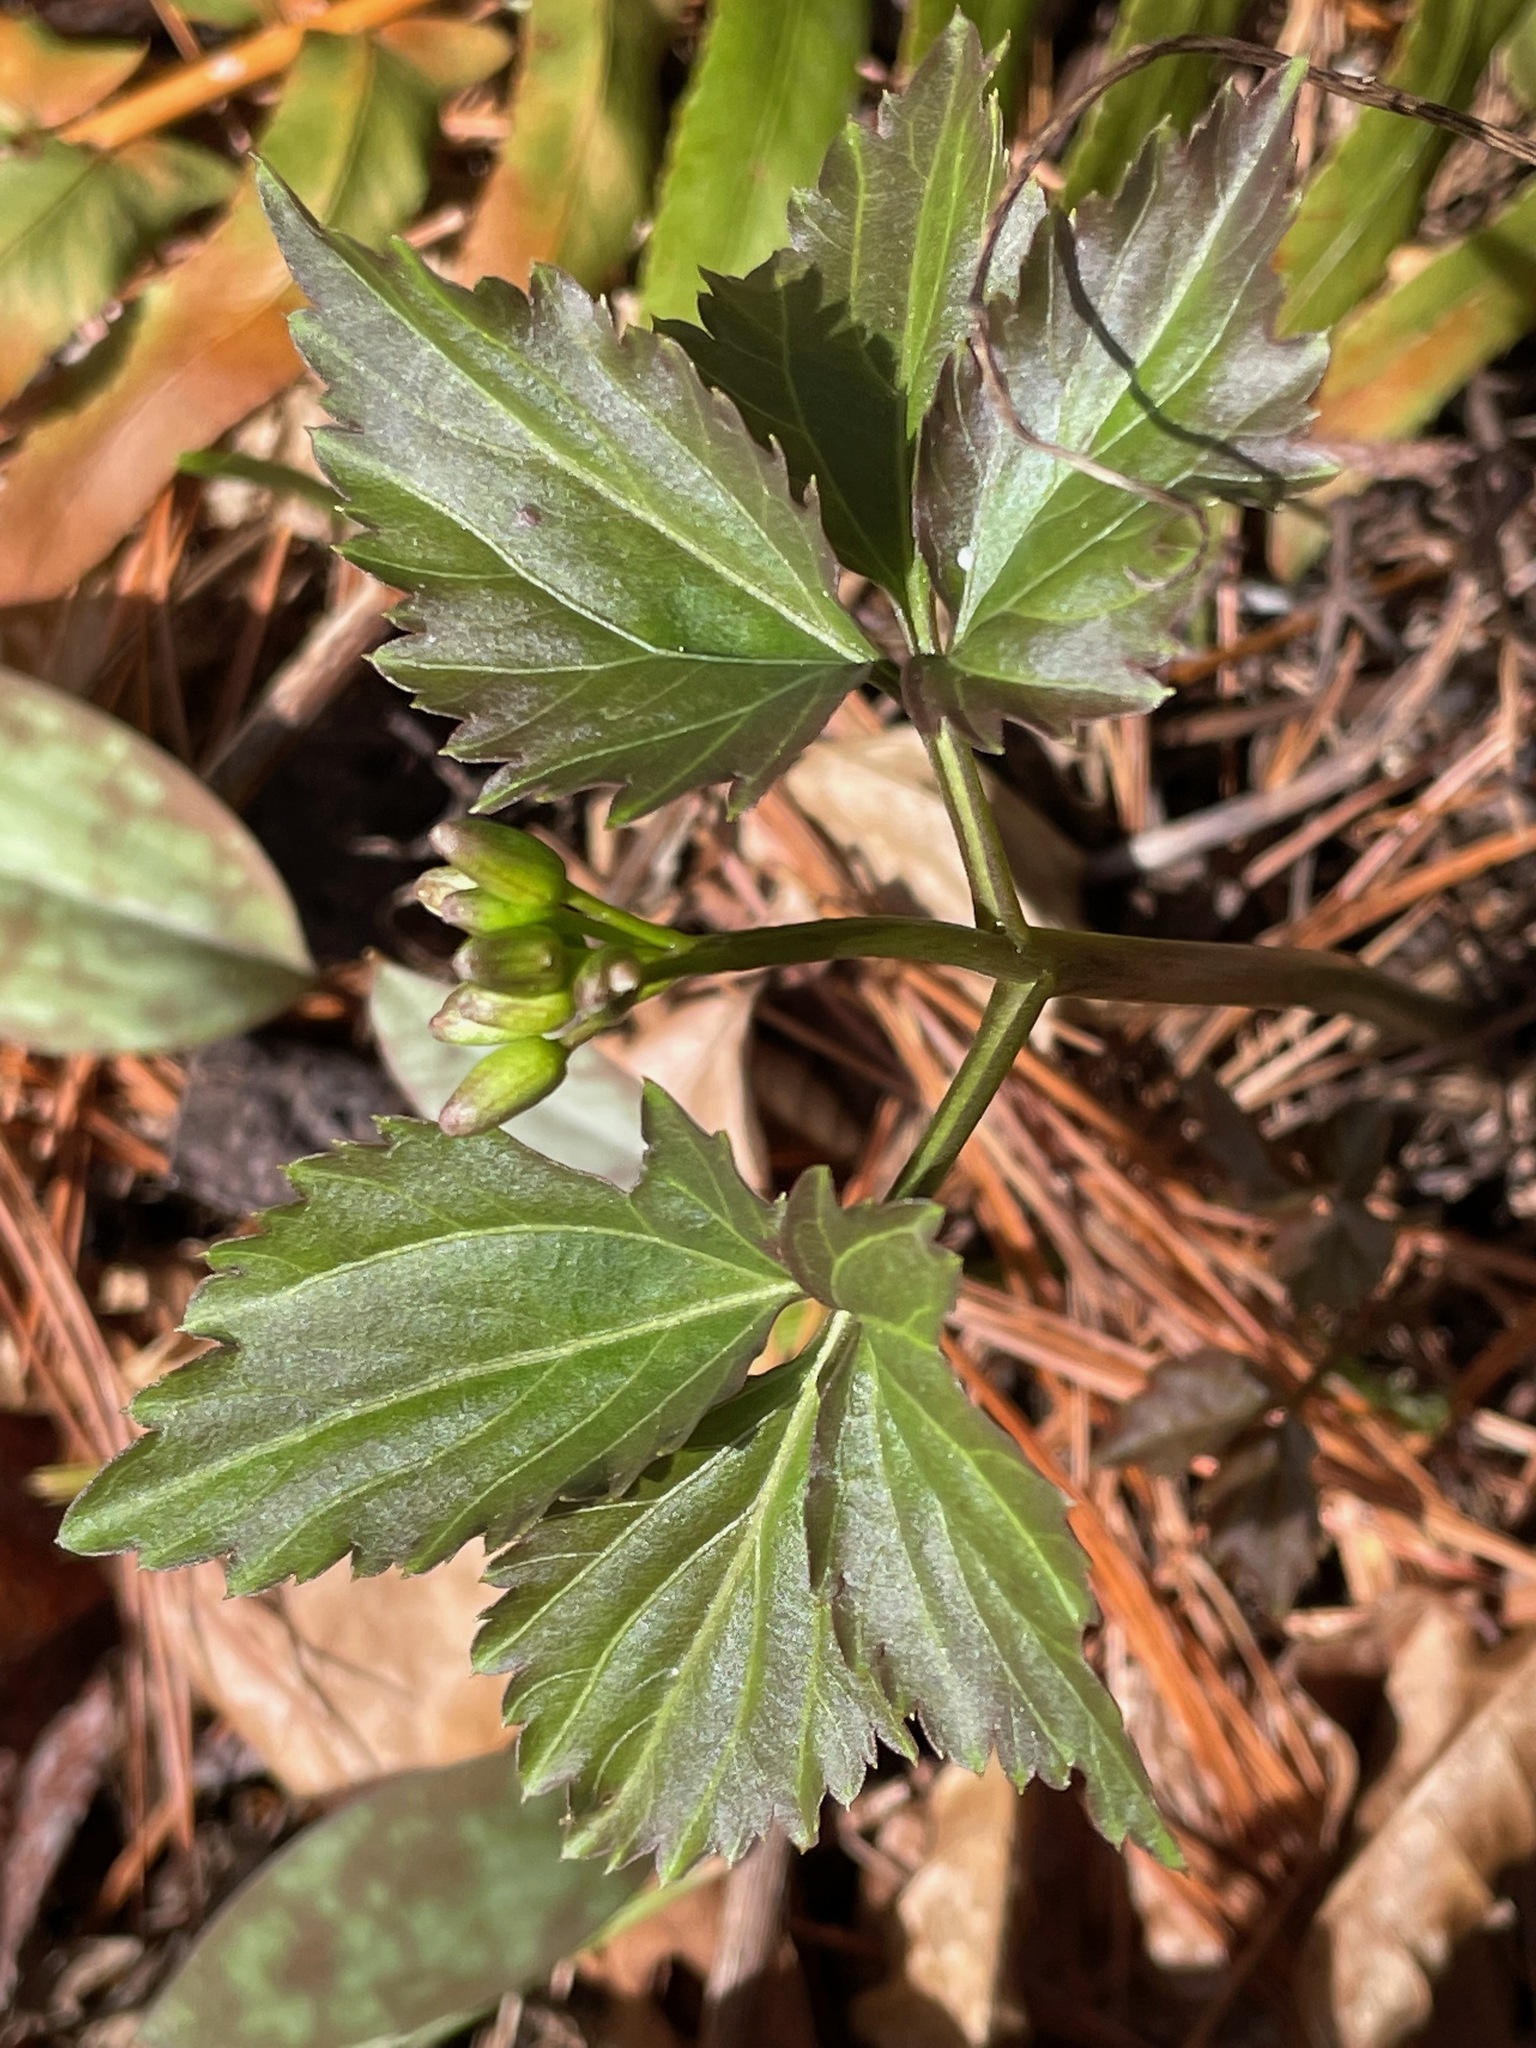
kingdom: Plantae
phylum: Tracheophyta
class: Magnoliopsida
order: Brassicales
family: Brassicaceae
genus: Cardamine
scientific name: Cardamine diphylla
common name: Broad-leaved toothwort
